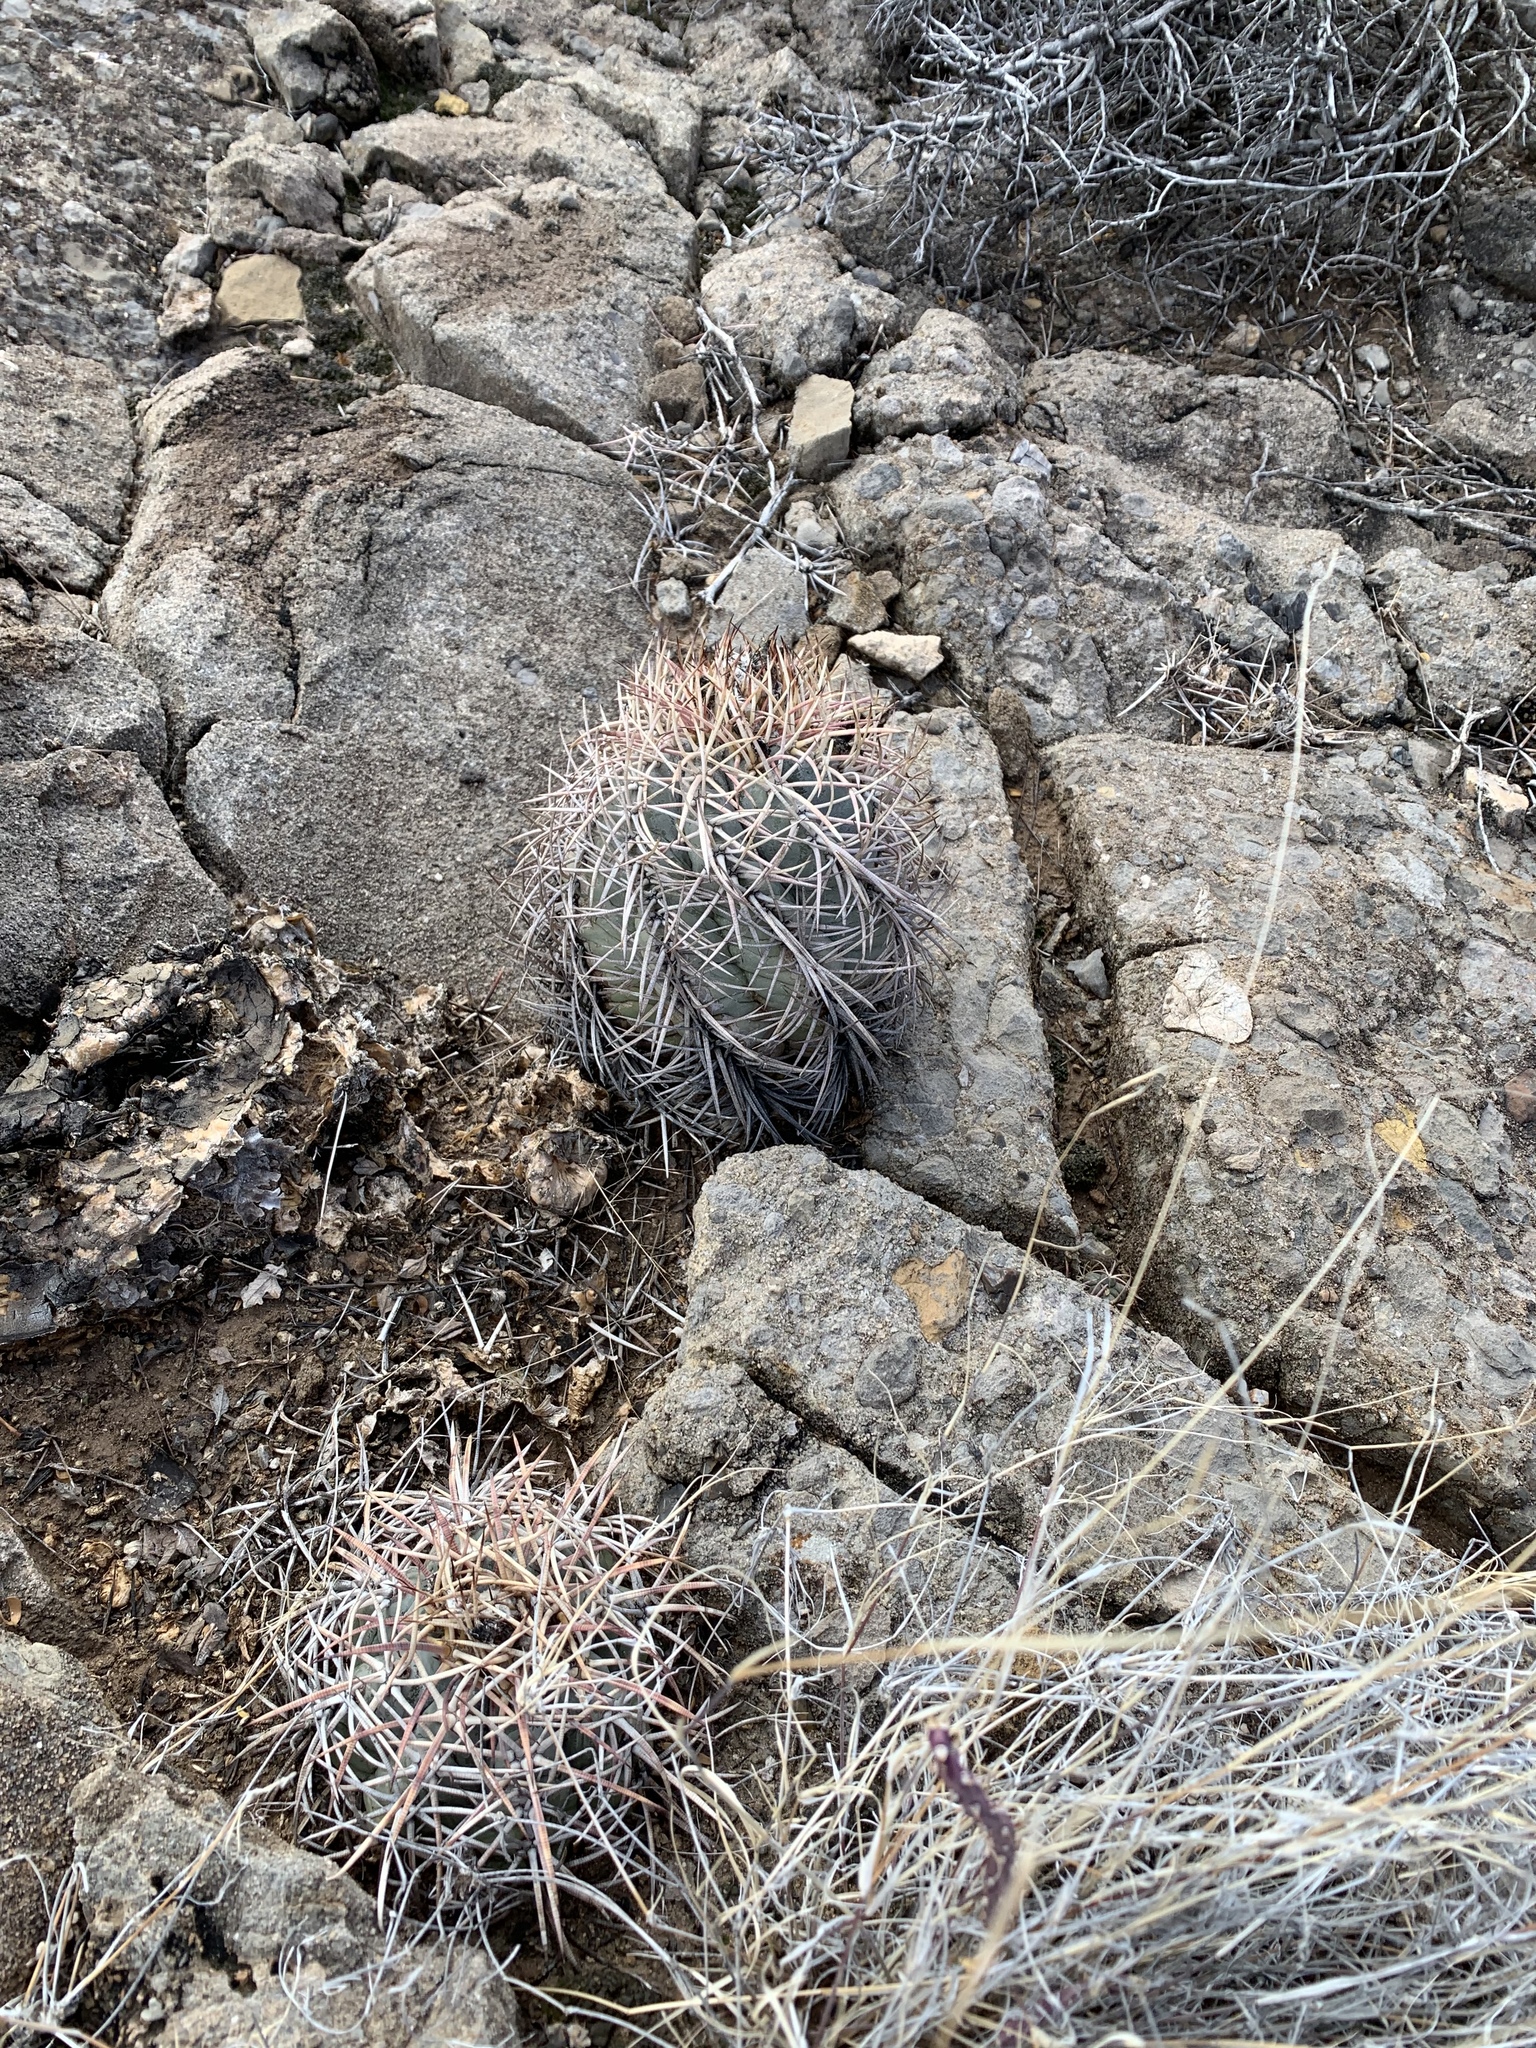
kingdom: Plantae
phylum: Tracheophyta
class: Magnoliopsida
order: Caryophyllales
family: Cactaceae
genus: Echinocactus
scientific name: Echinocactus horizonthalonius
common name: Devilshead
